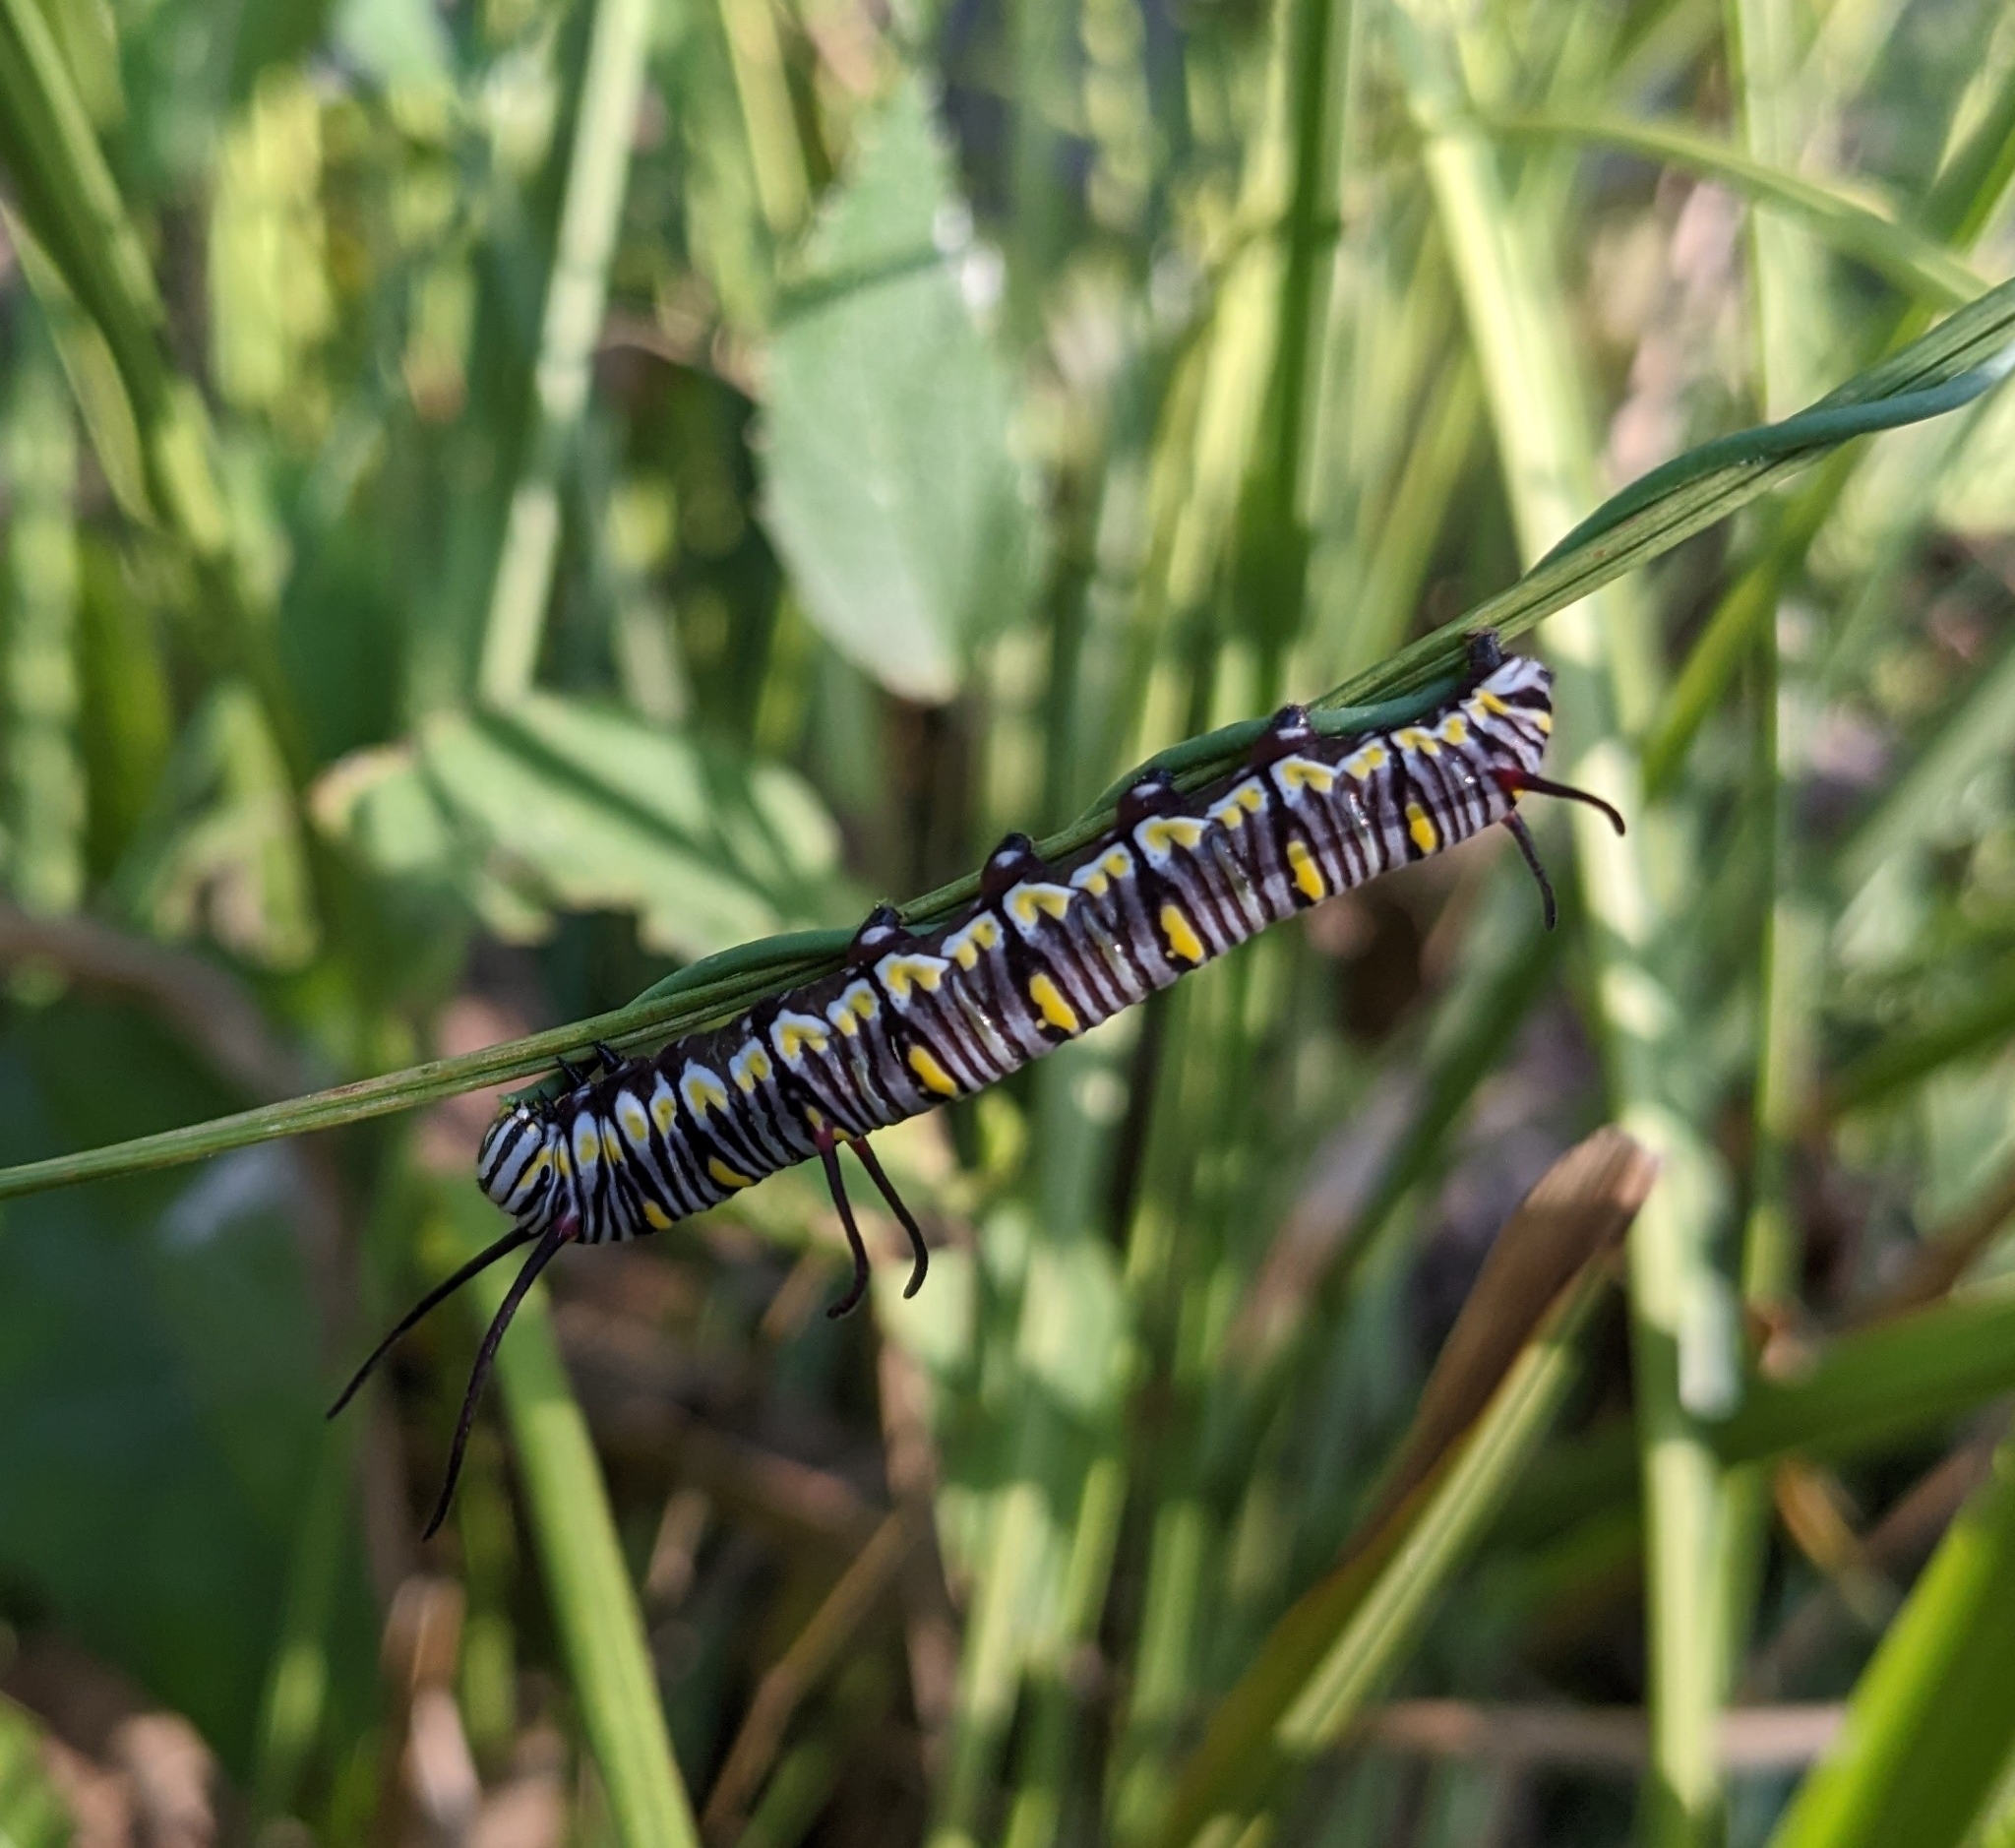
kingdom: Animalia
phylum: Arthropoda
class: Insecta
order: Lepidoptera
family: Nymphalidae
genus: Danaus
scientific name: Danaus gilippus
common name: Queen
